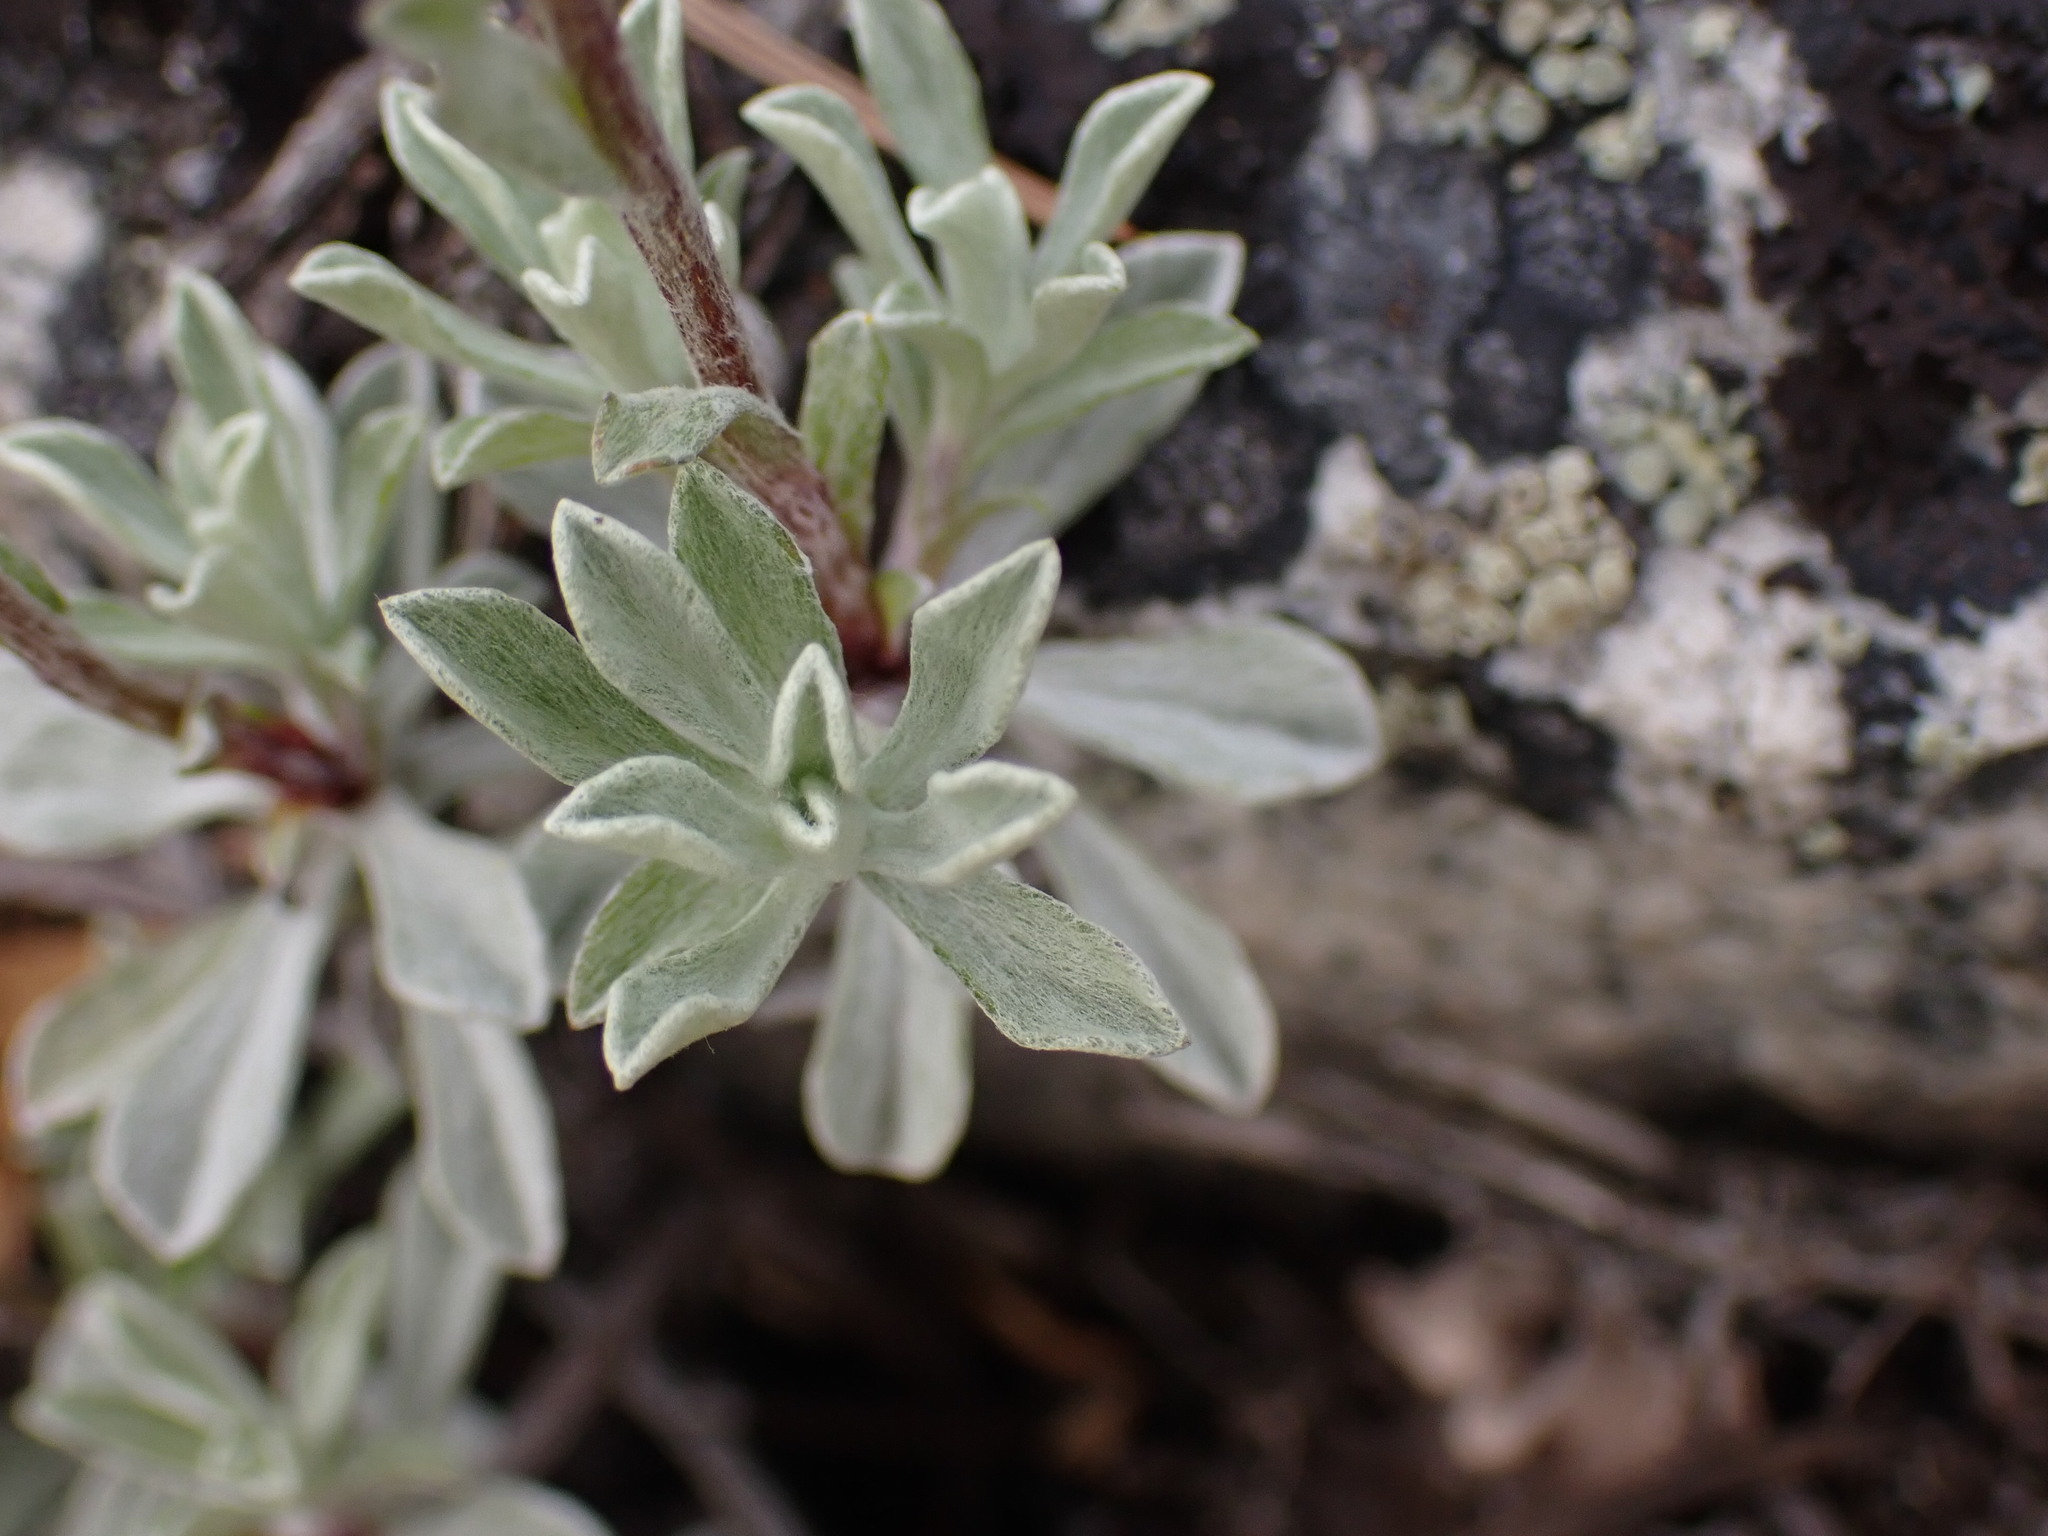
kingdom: Plantae
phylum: Tracheophyta
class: Magnoliopsida
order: Asterales
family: Asteraceae
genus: Antennaria
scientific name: Antennaria umbrinella
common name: Brown pussytoes
